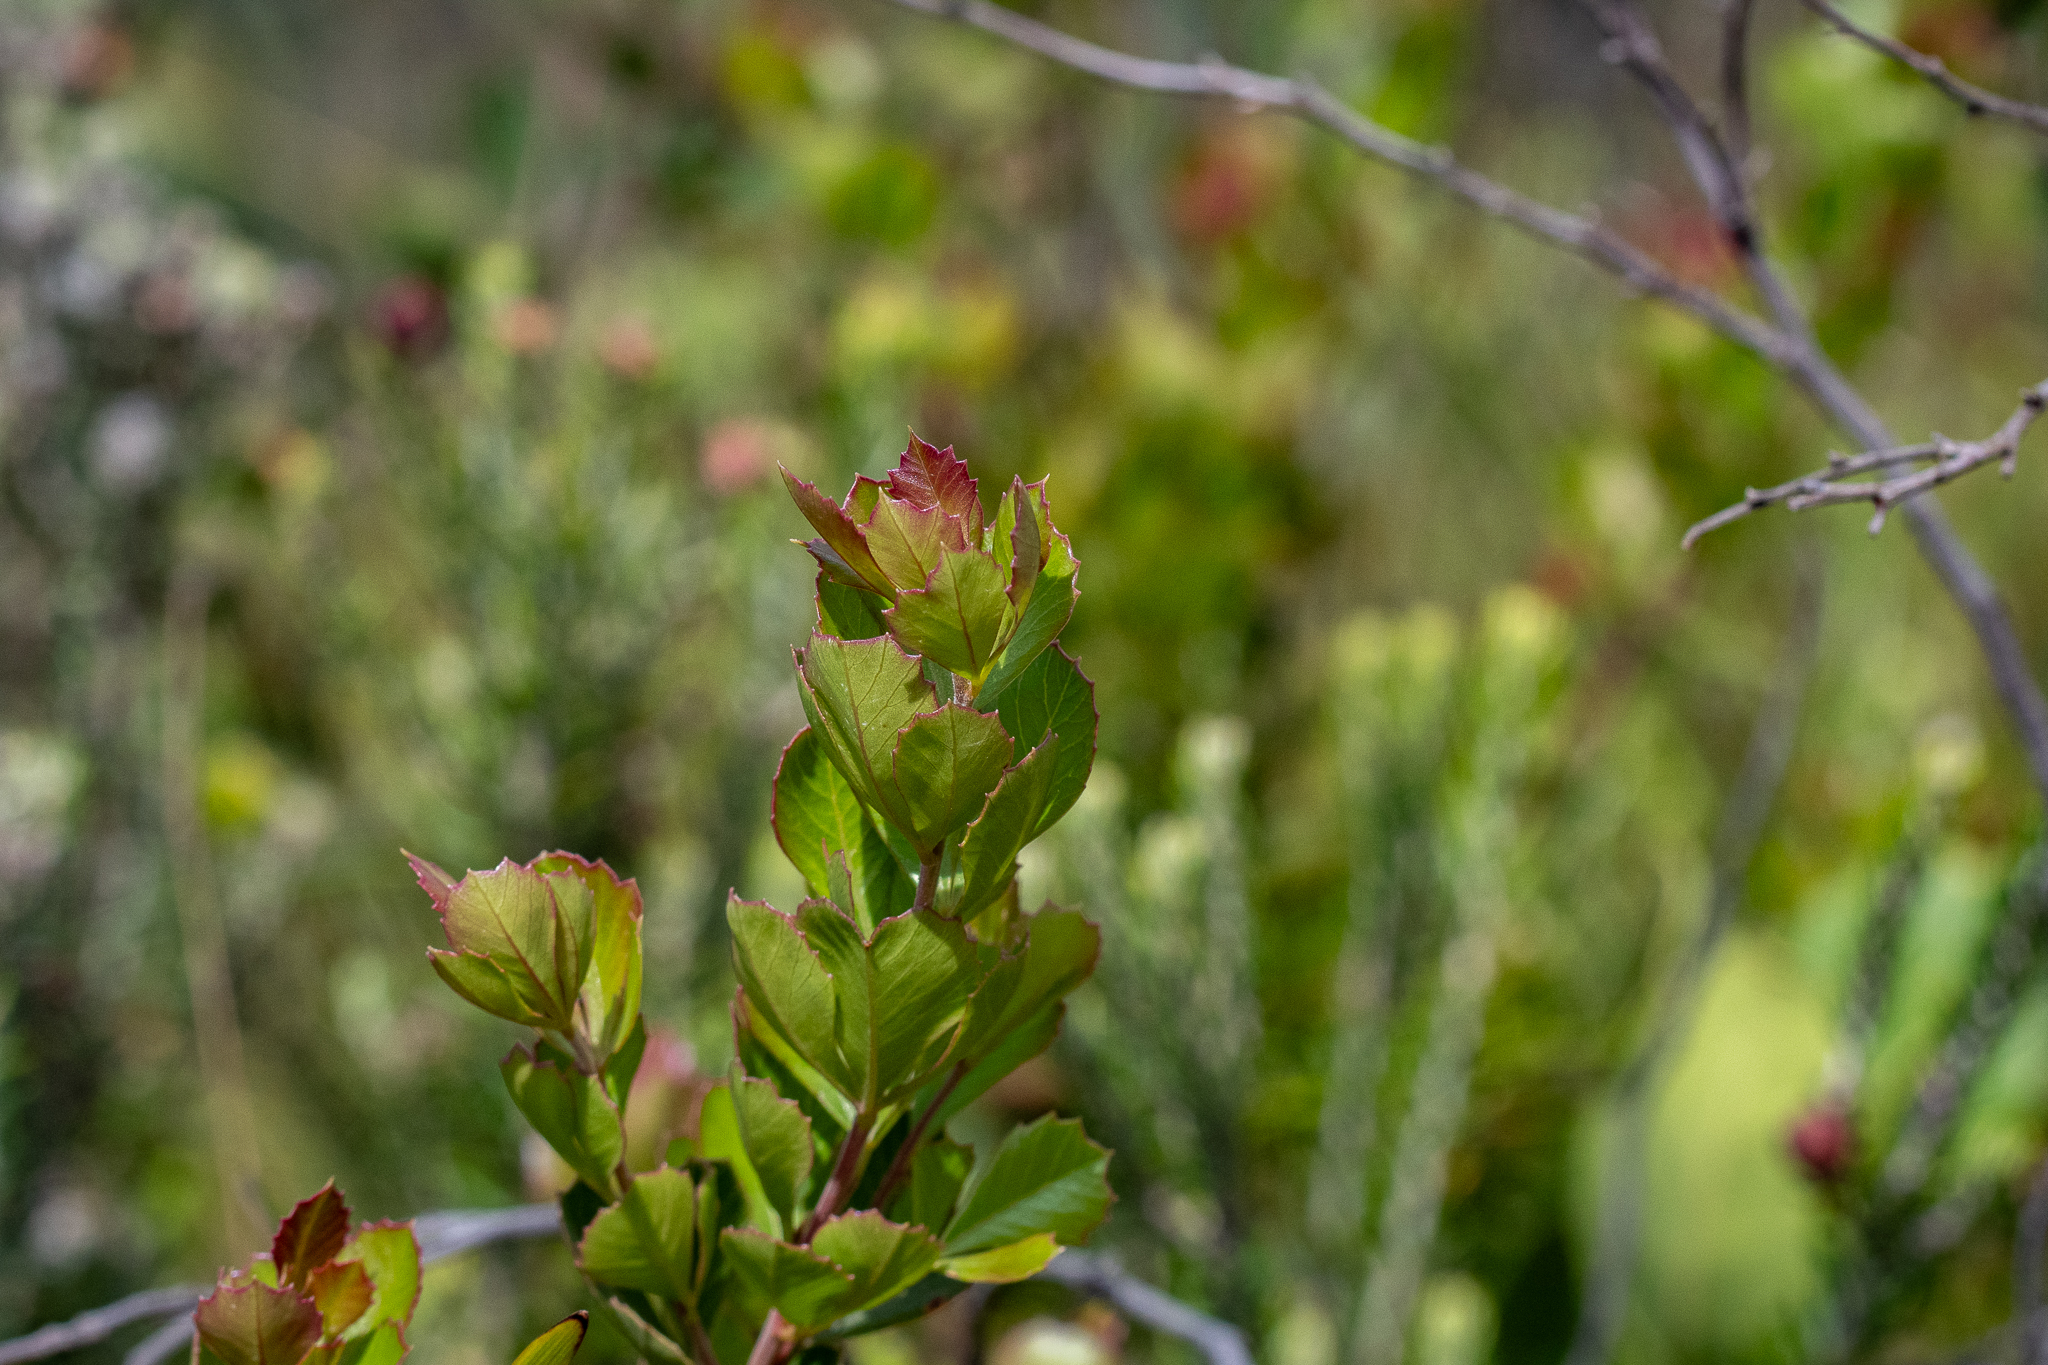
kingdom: Plantae
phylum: Tracheophyta
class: Magnoliopsida
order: Sapindales
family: Anacardiaceae
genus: Searsia
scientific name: Searsia cuneifolia
